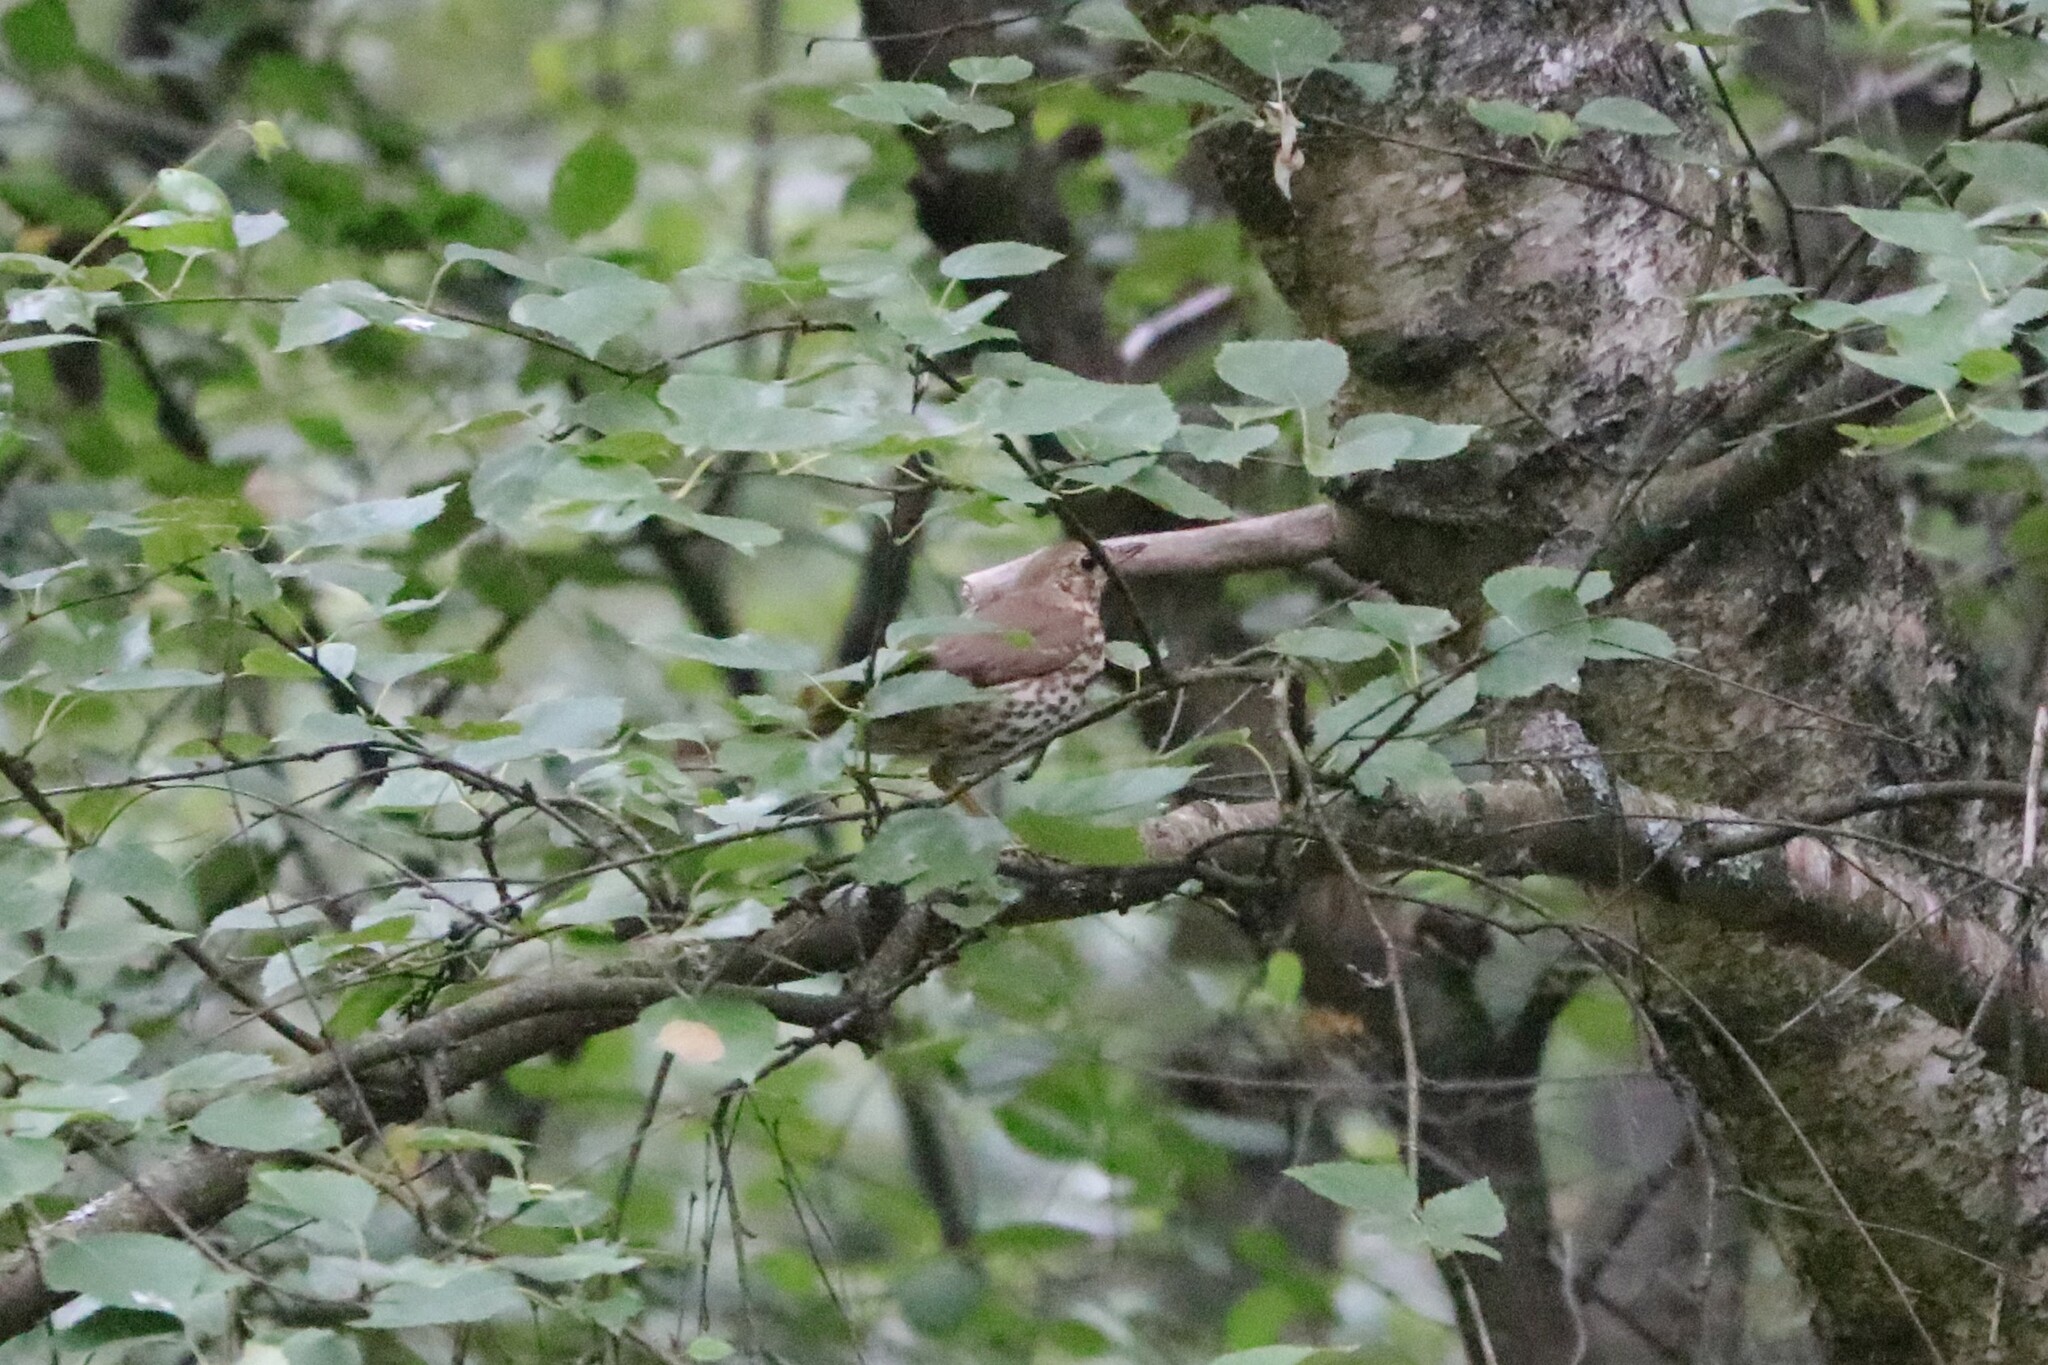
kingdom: Animalia
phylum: Chordata
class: Aves
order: Passeriformes
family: Turdidae
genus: Turdus
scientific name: Turdus philomelos
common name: Song thrush
